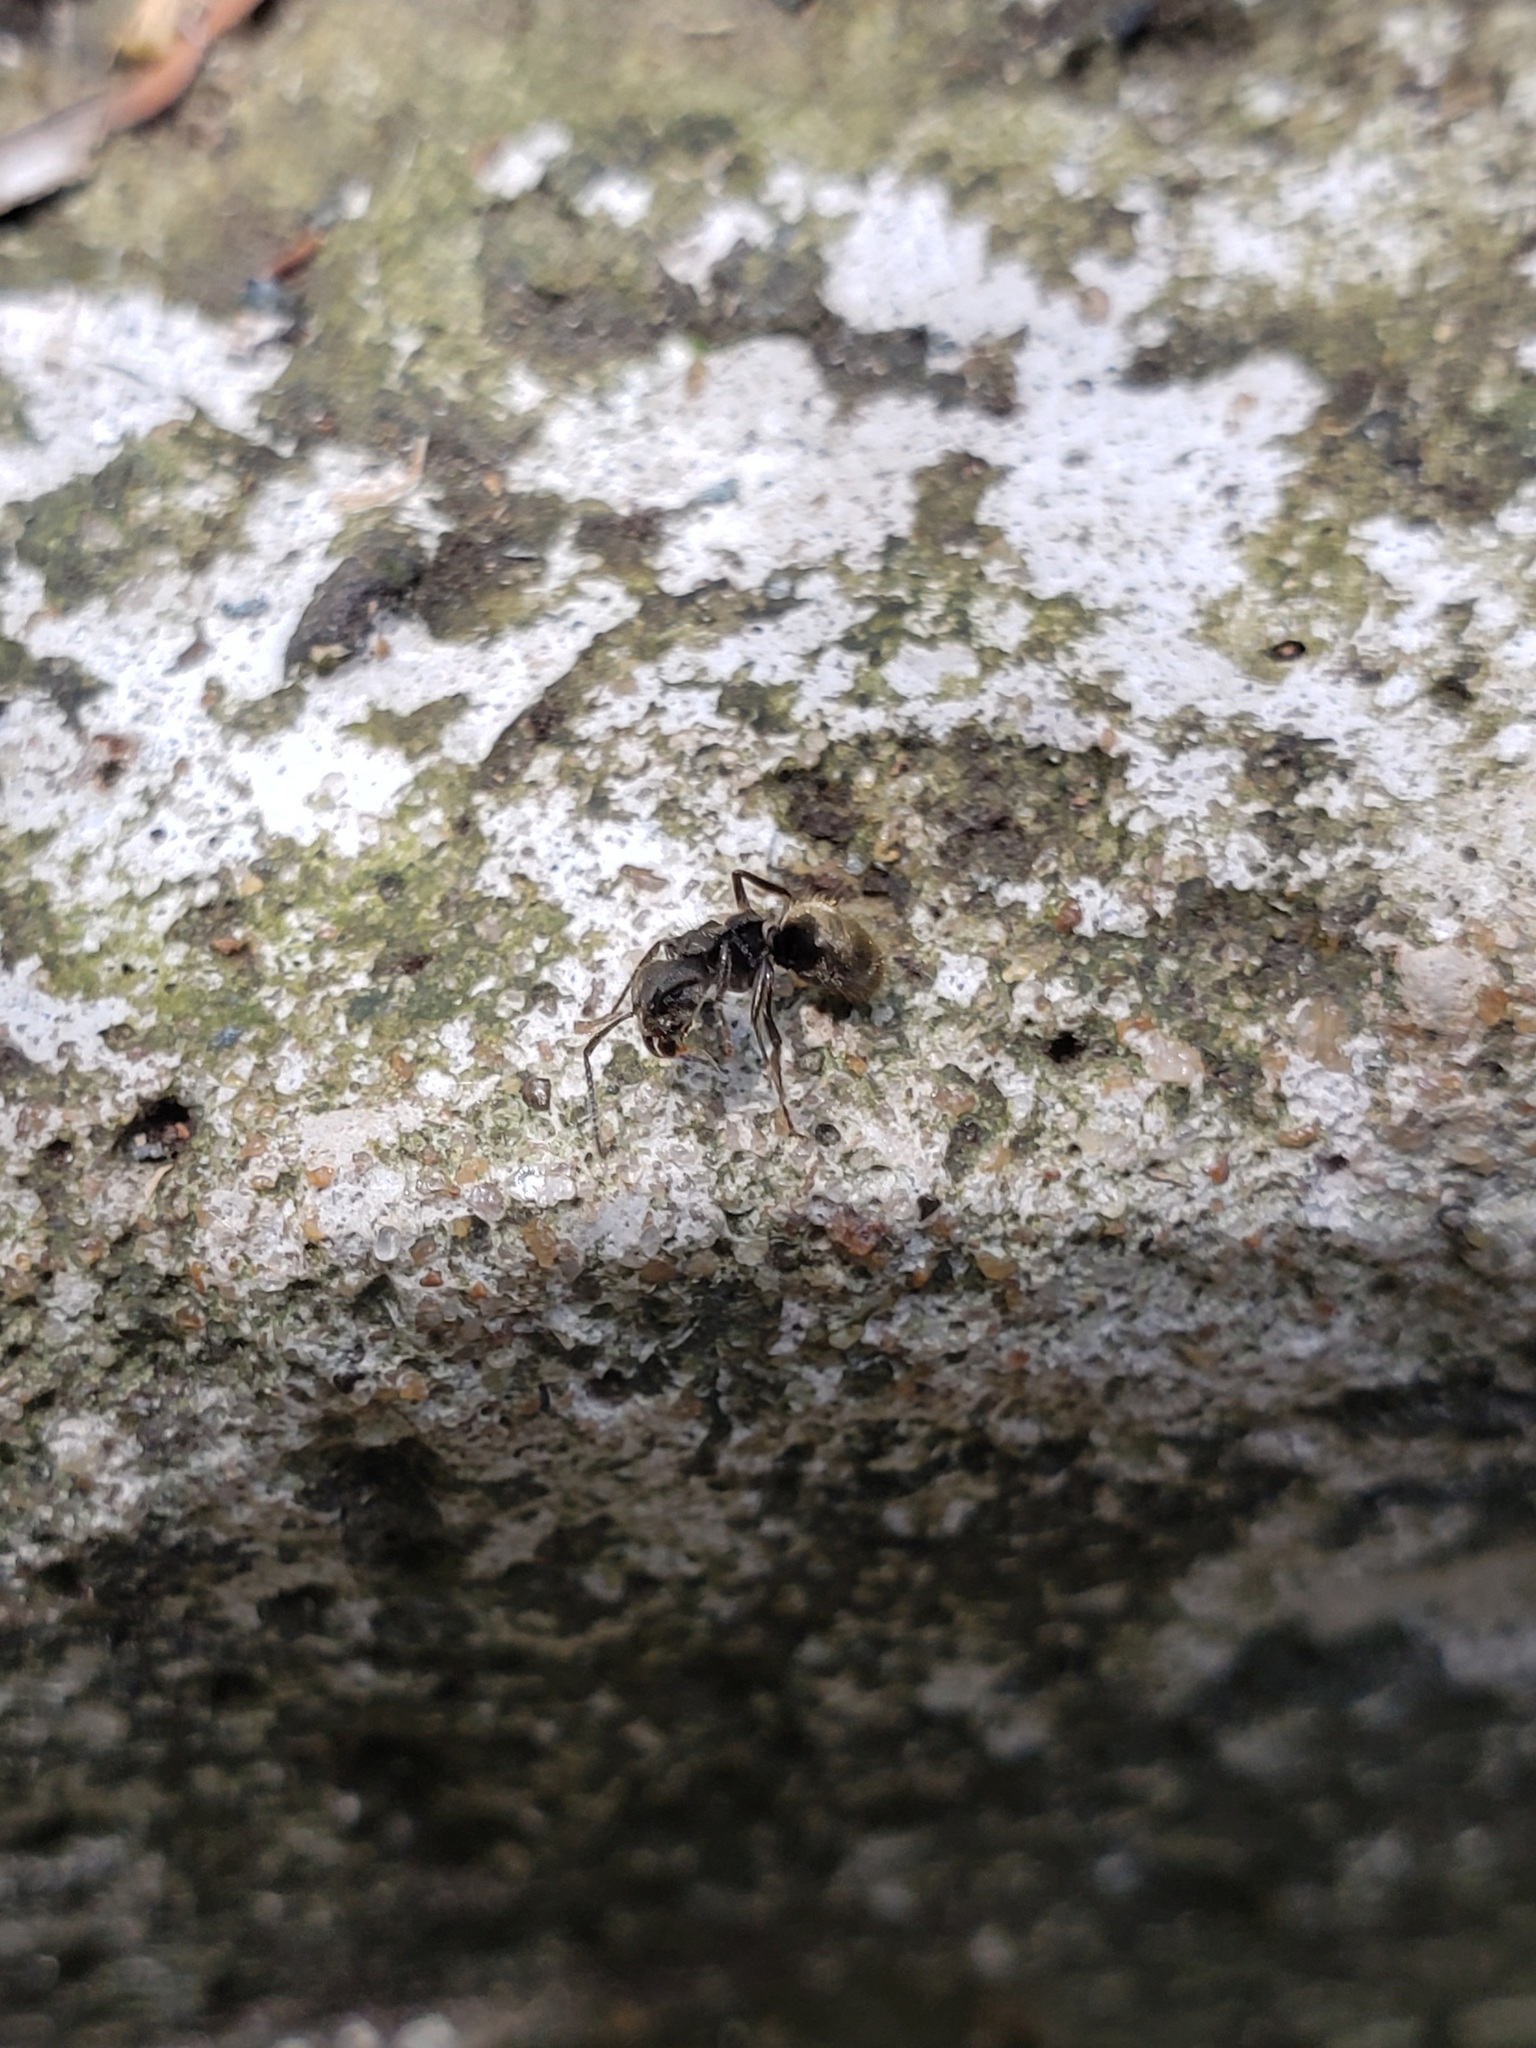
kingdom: Animalia
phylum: Arthropoda
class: Insecta
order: Hymenoptera
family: Formicidae
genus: Dolichoderus
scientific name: Dolichoderus bispinosus
